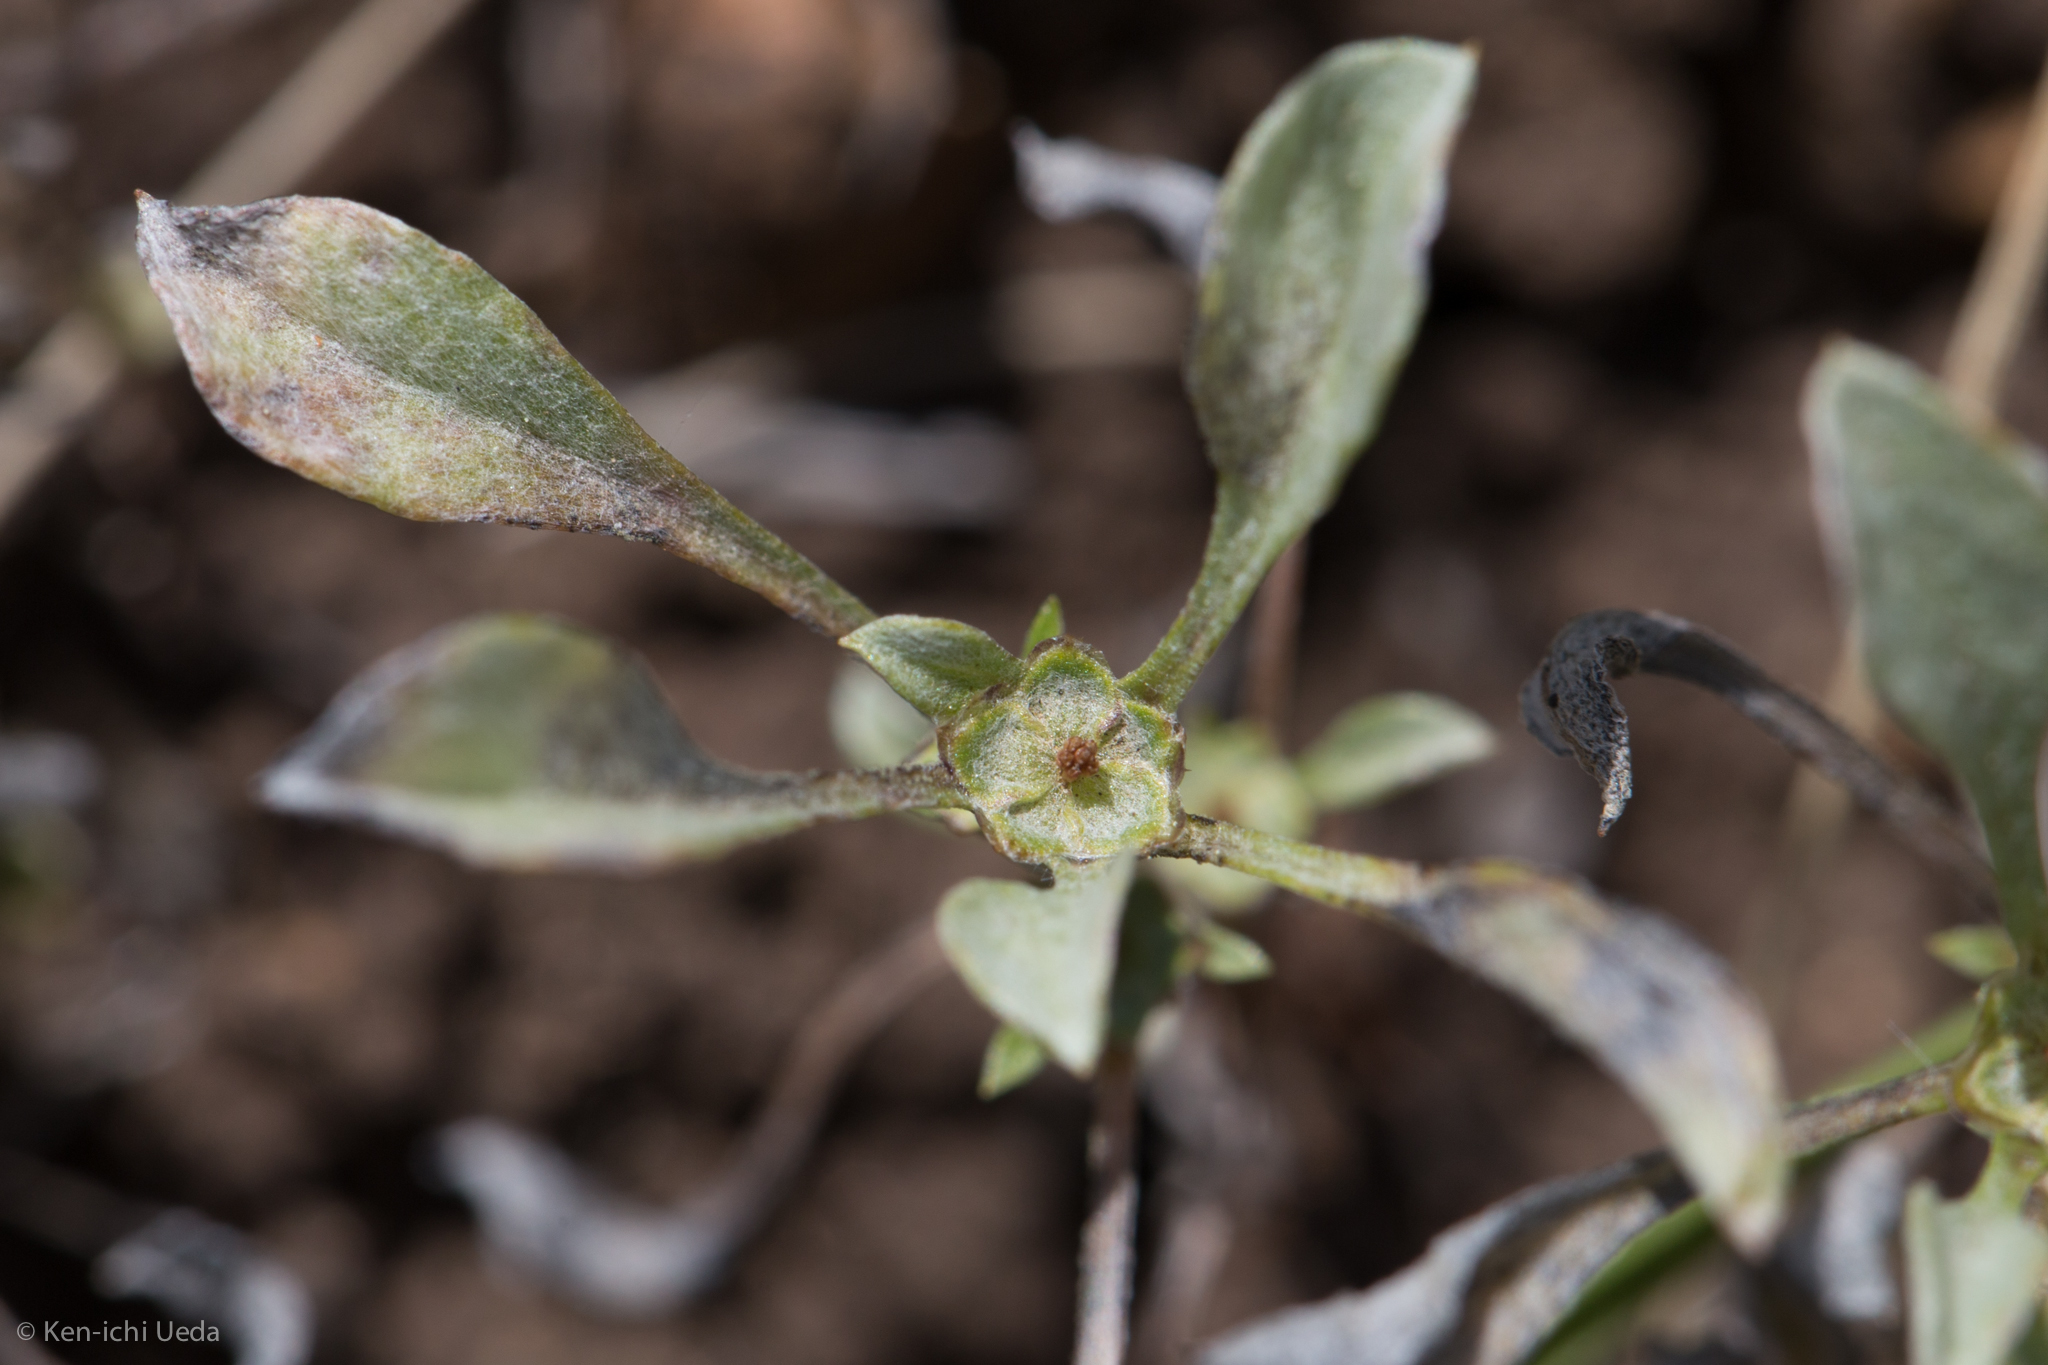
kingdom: Plantae
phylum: Tracheophyta
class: Magnoliopsida
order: Asterales
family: Asteraceae
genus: Hesperevax
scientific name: Hesperevax sparsiflora
